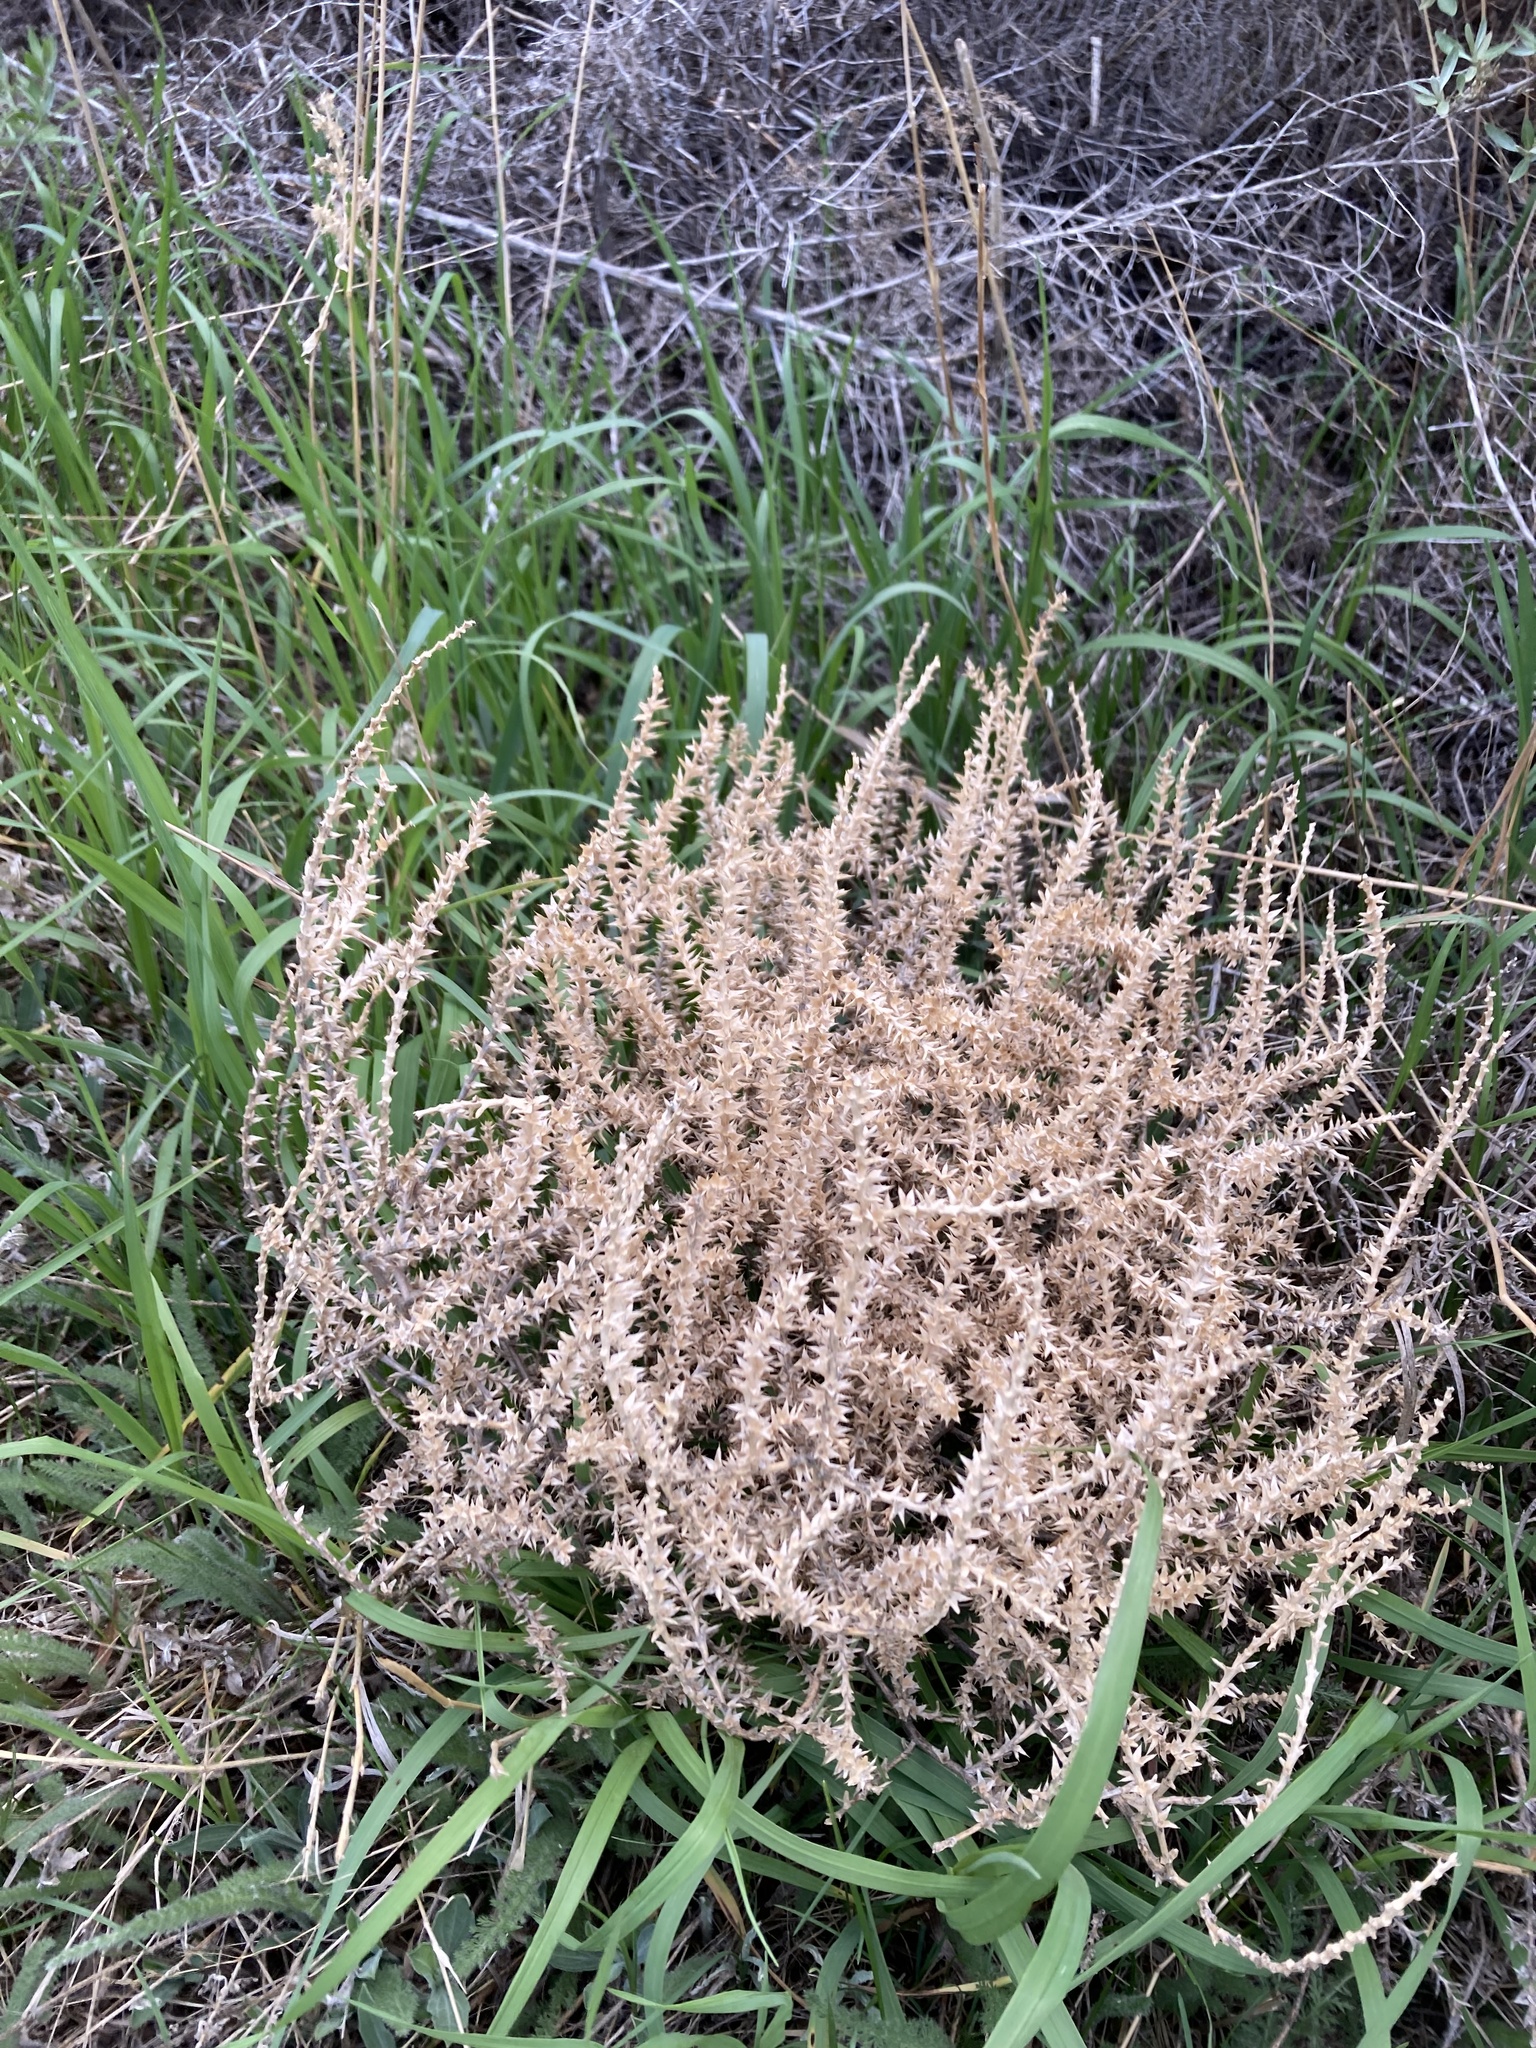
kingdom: Plantae
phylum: Tracheophyta
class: Magnoliopsida
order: Caryophyllales
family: Amaranthaceae
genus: Salsola
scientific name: Salsola tragus
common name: Prickly russian thistle
